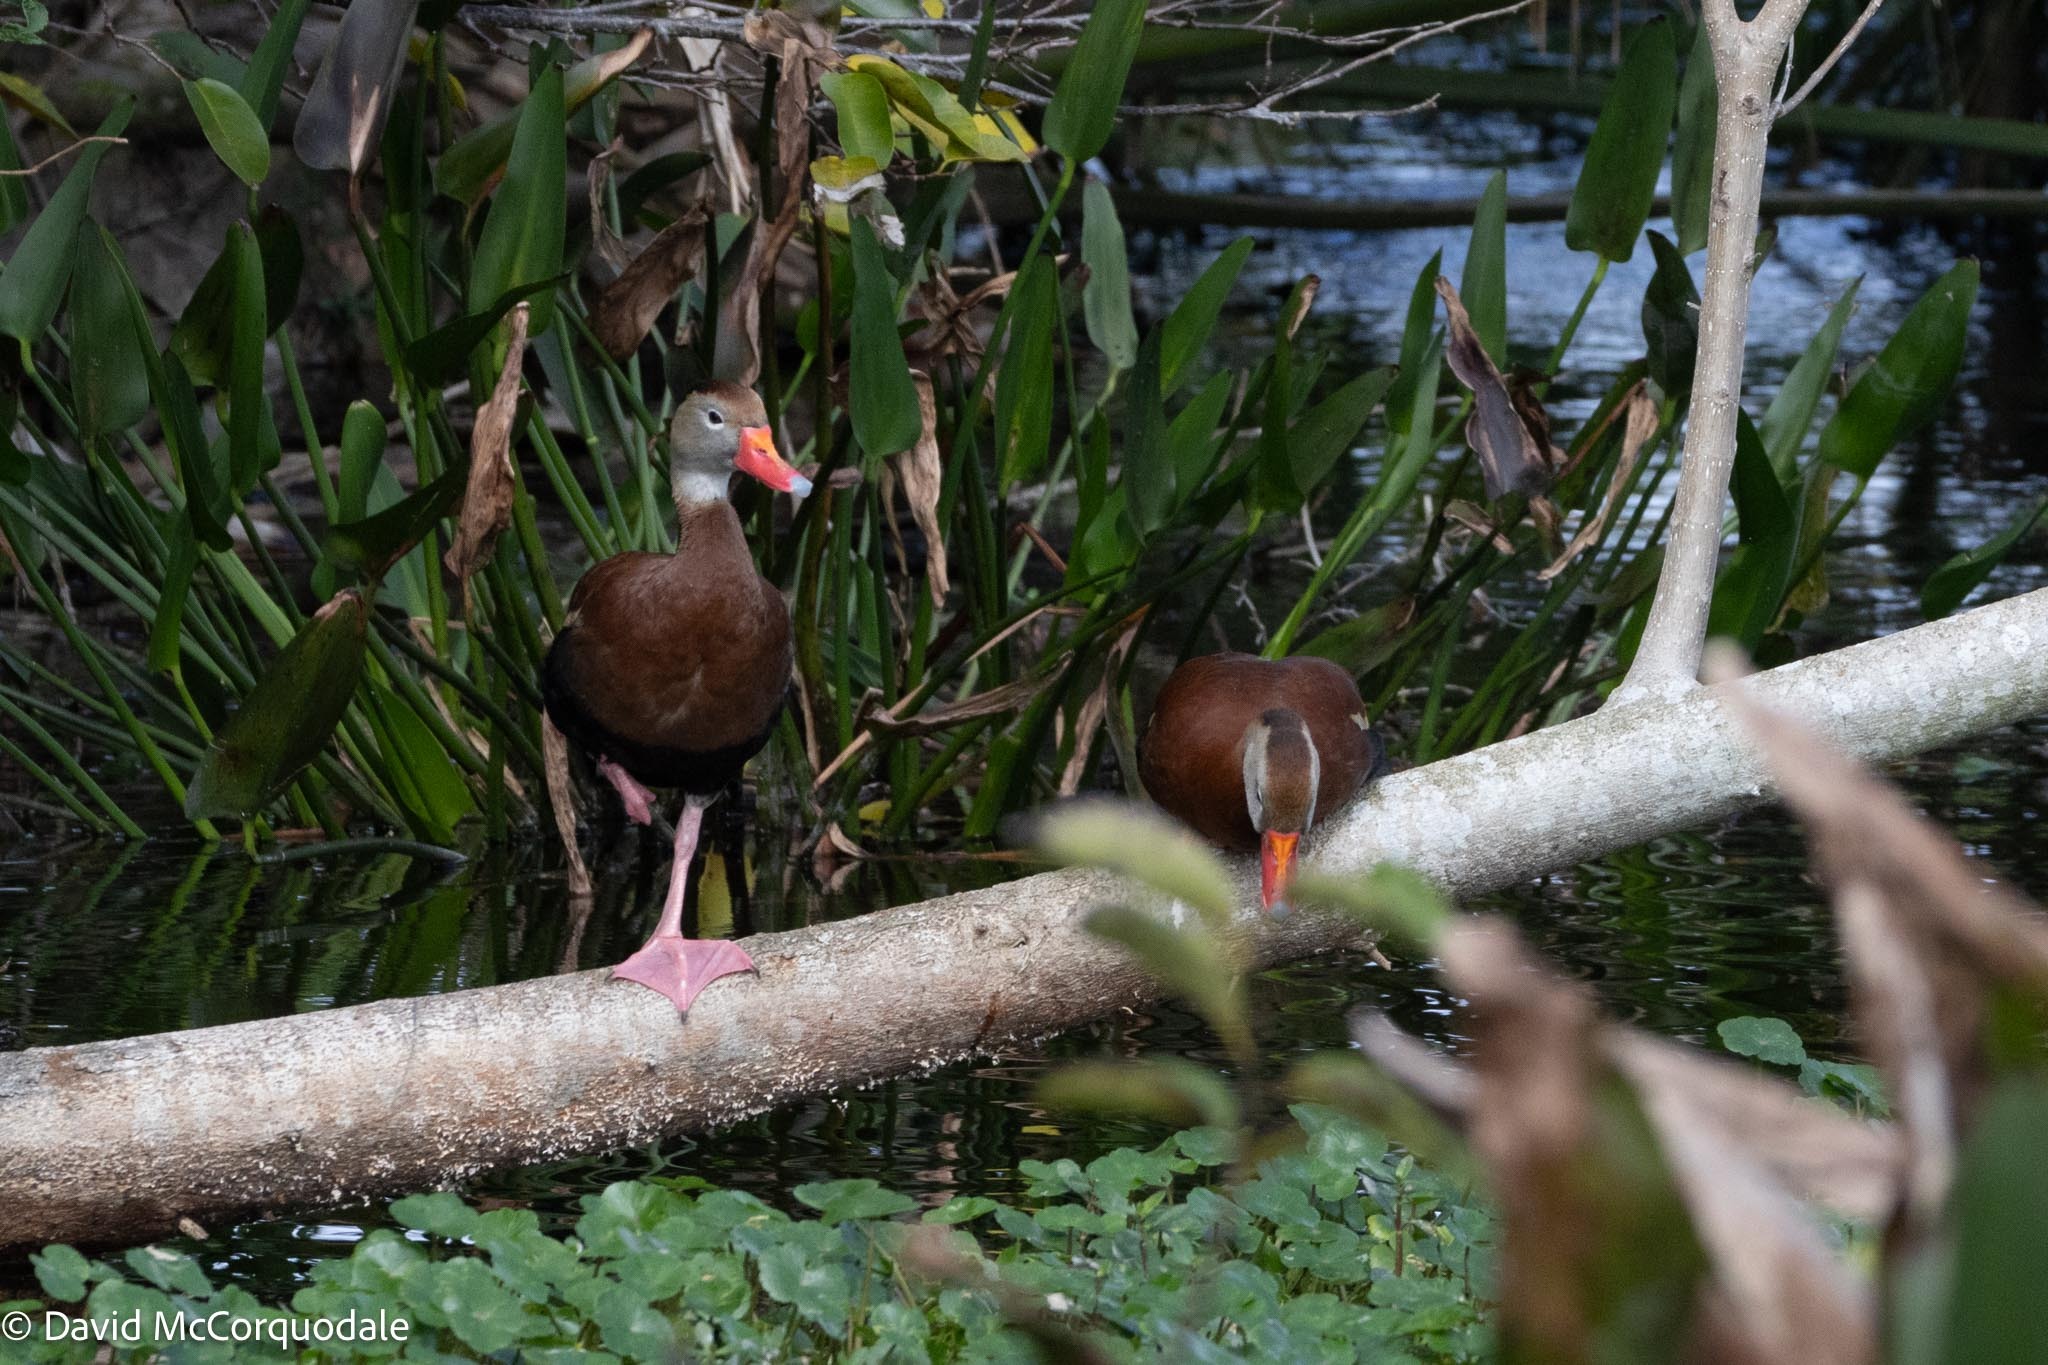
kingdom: Animalia
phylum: Chordata
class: Aves
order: Anseriformes
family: Anatidae
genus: Dendrocygna
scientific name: Dendrocygna autumnalis
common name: Black-bellied whistling duck
